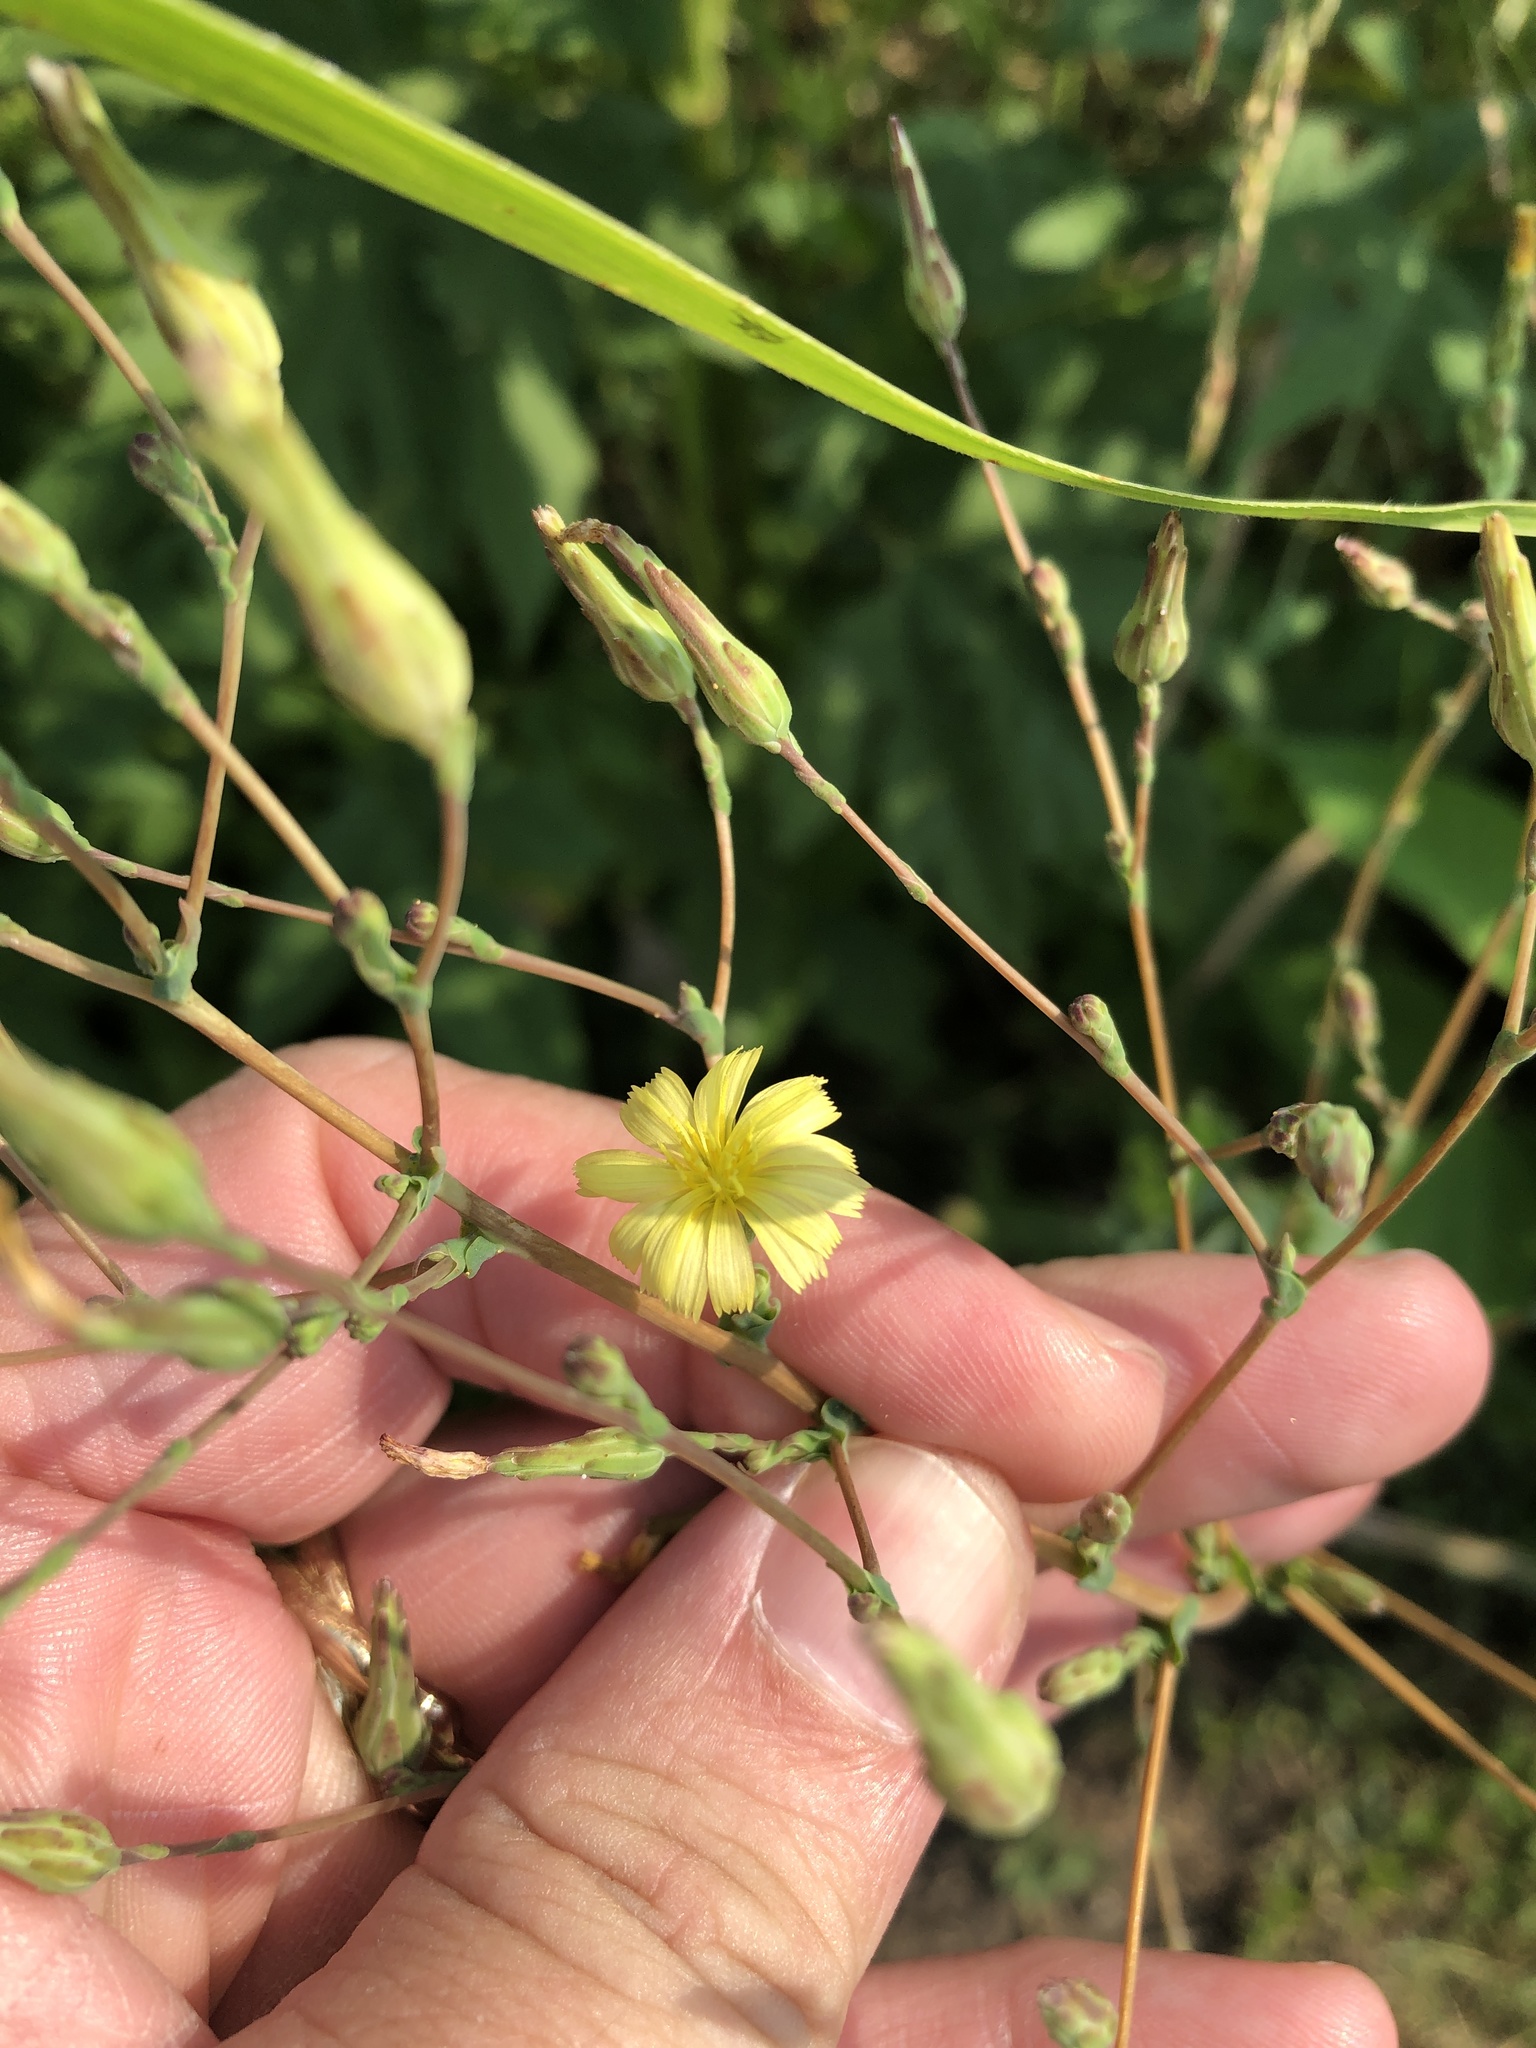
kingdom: Plantae
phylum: Tracheophyta
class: Magnoliopsida
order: Asterales
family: Asteraceae
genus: Lactuca
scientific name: Lactuca serriola
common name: Prickly lettuce
